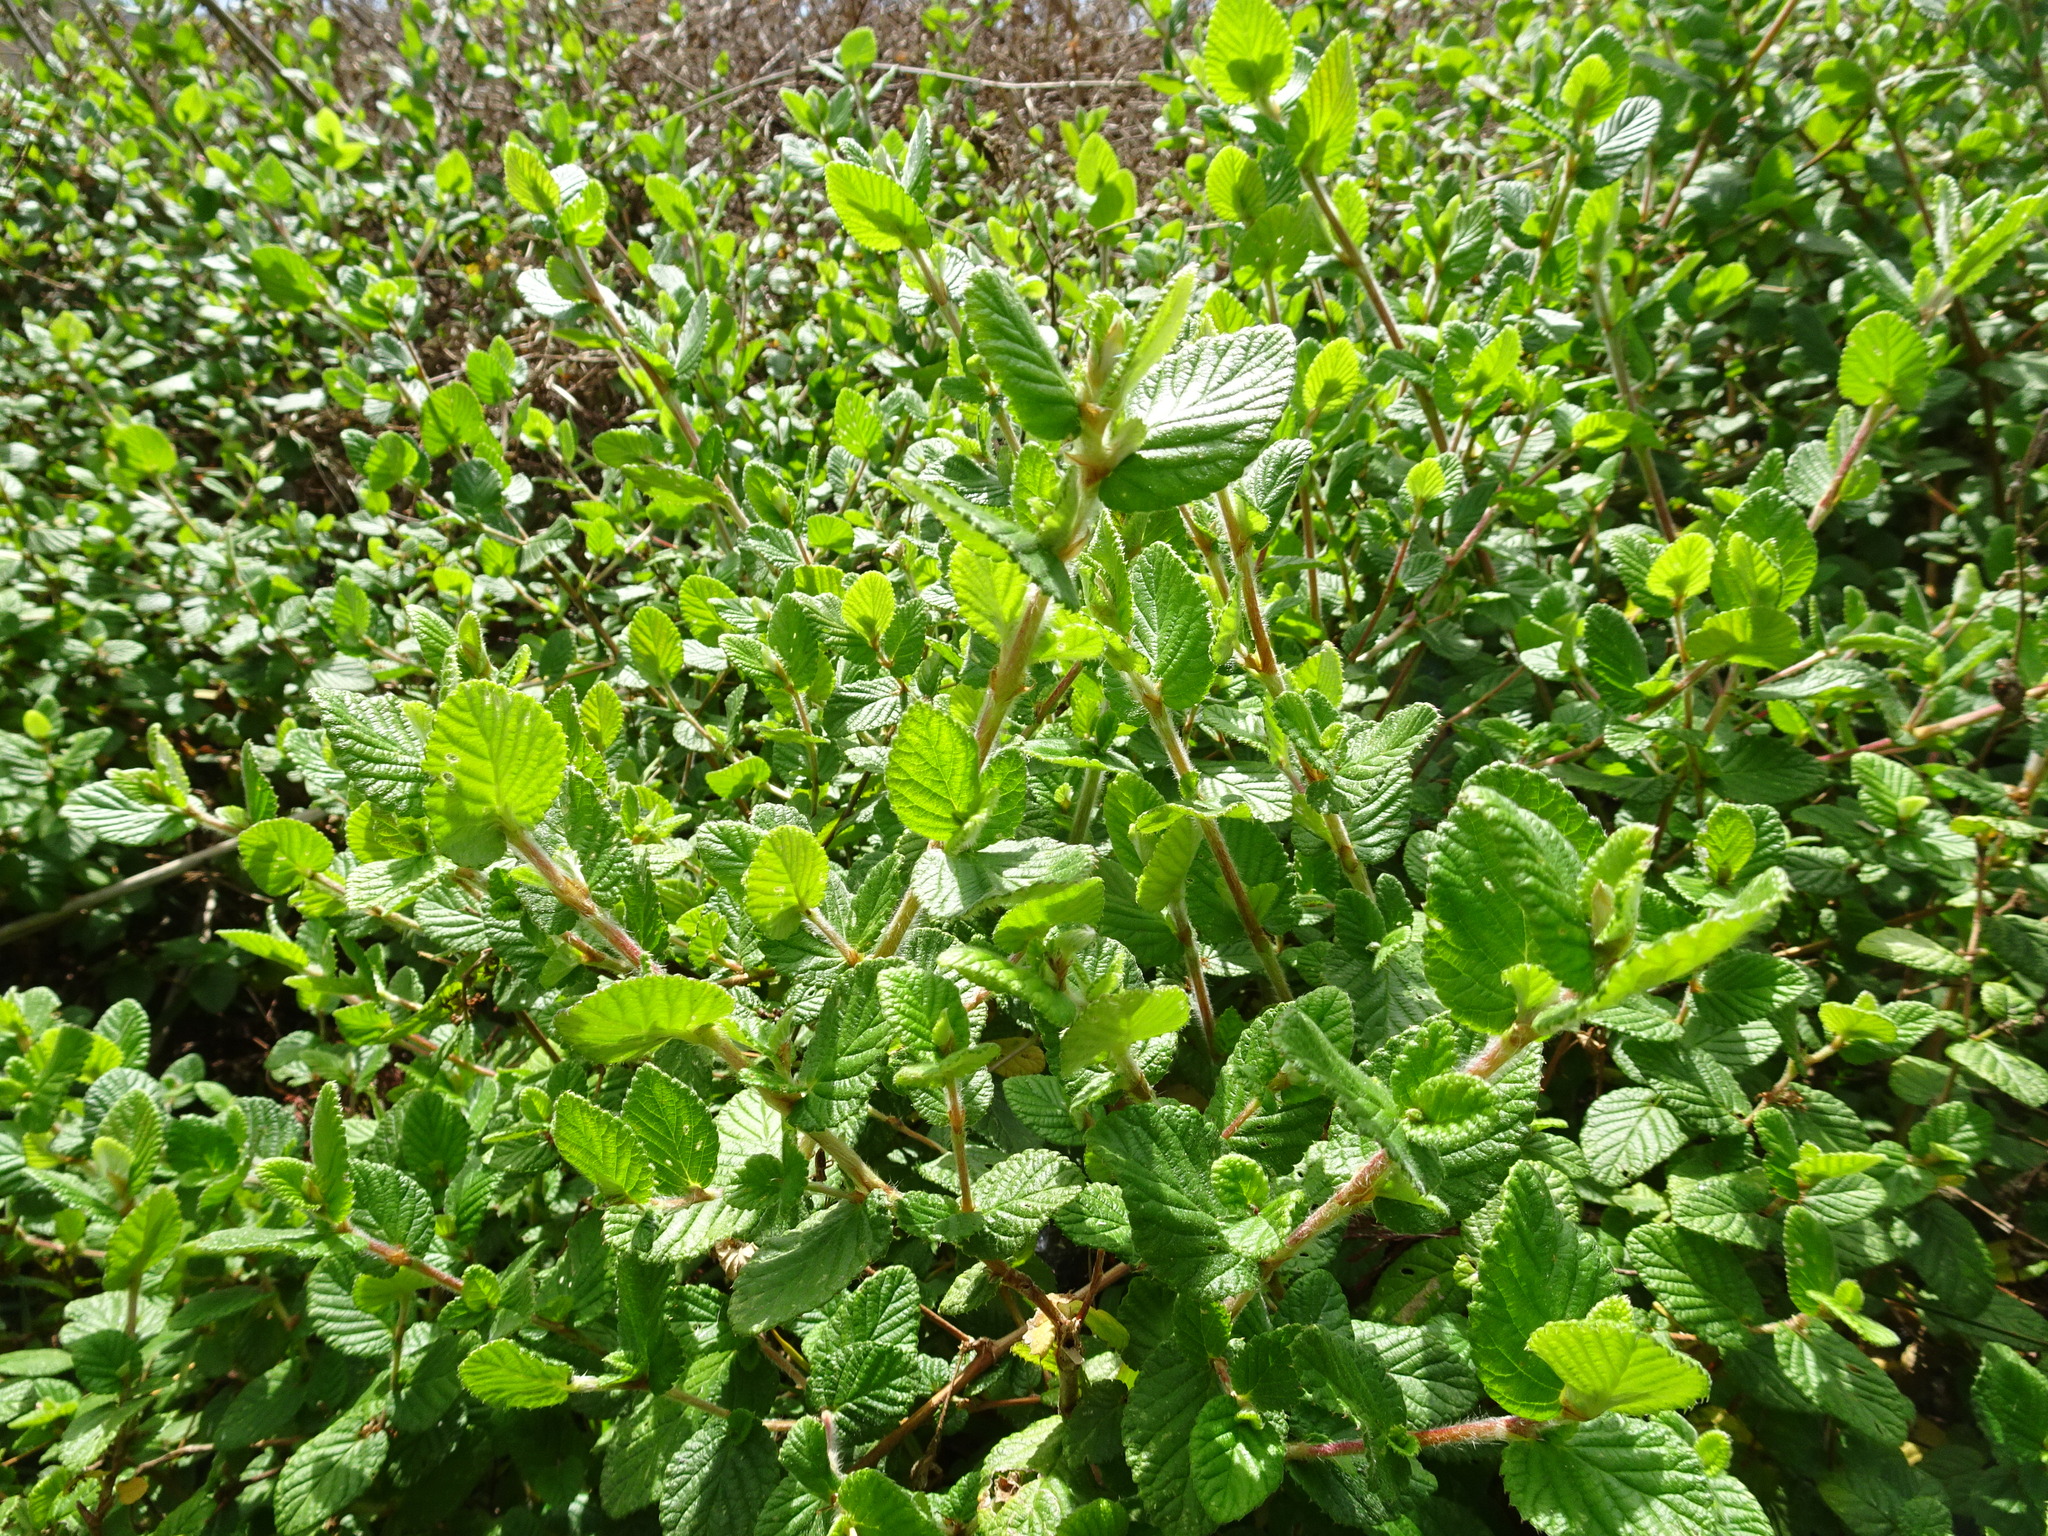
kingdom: Plantae
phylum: Tracheophyta
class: Magnoliopsida
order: Rosales
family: Rosaceae
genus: Cliffortia
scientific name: Cliffortia odorata
